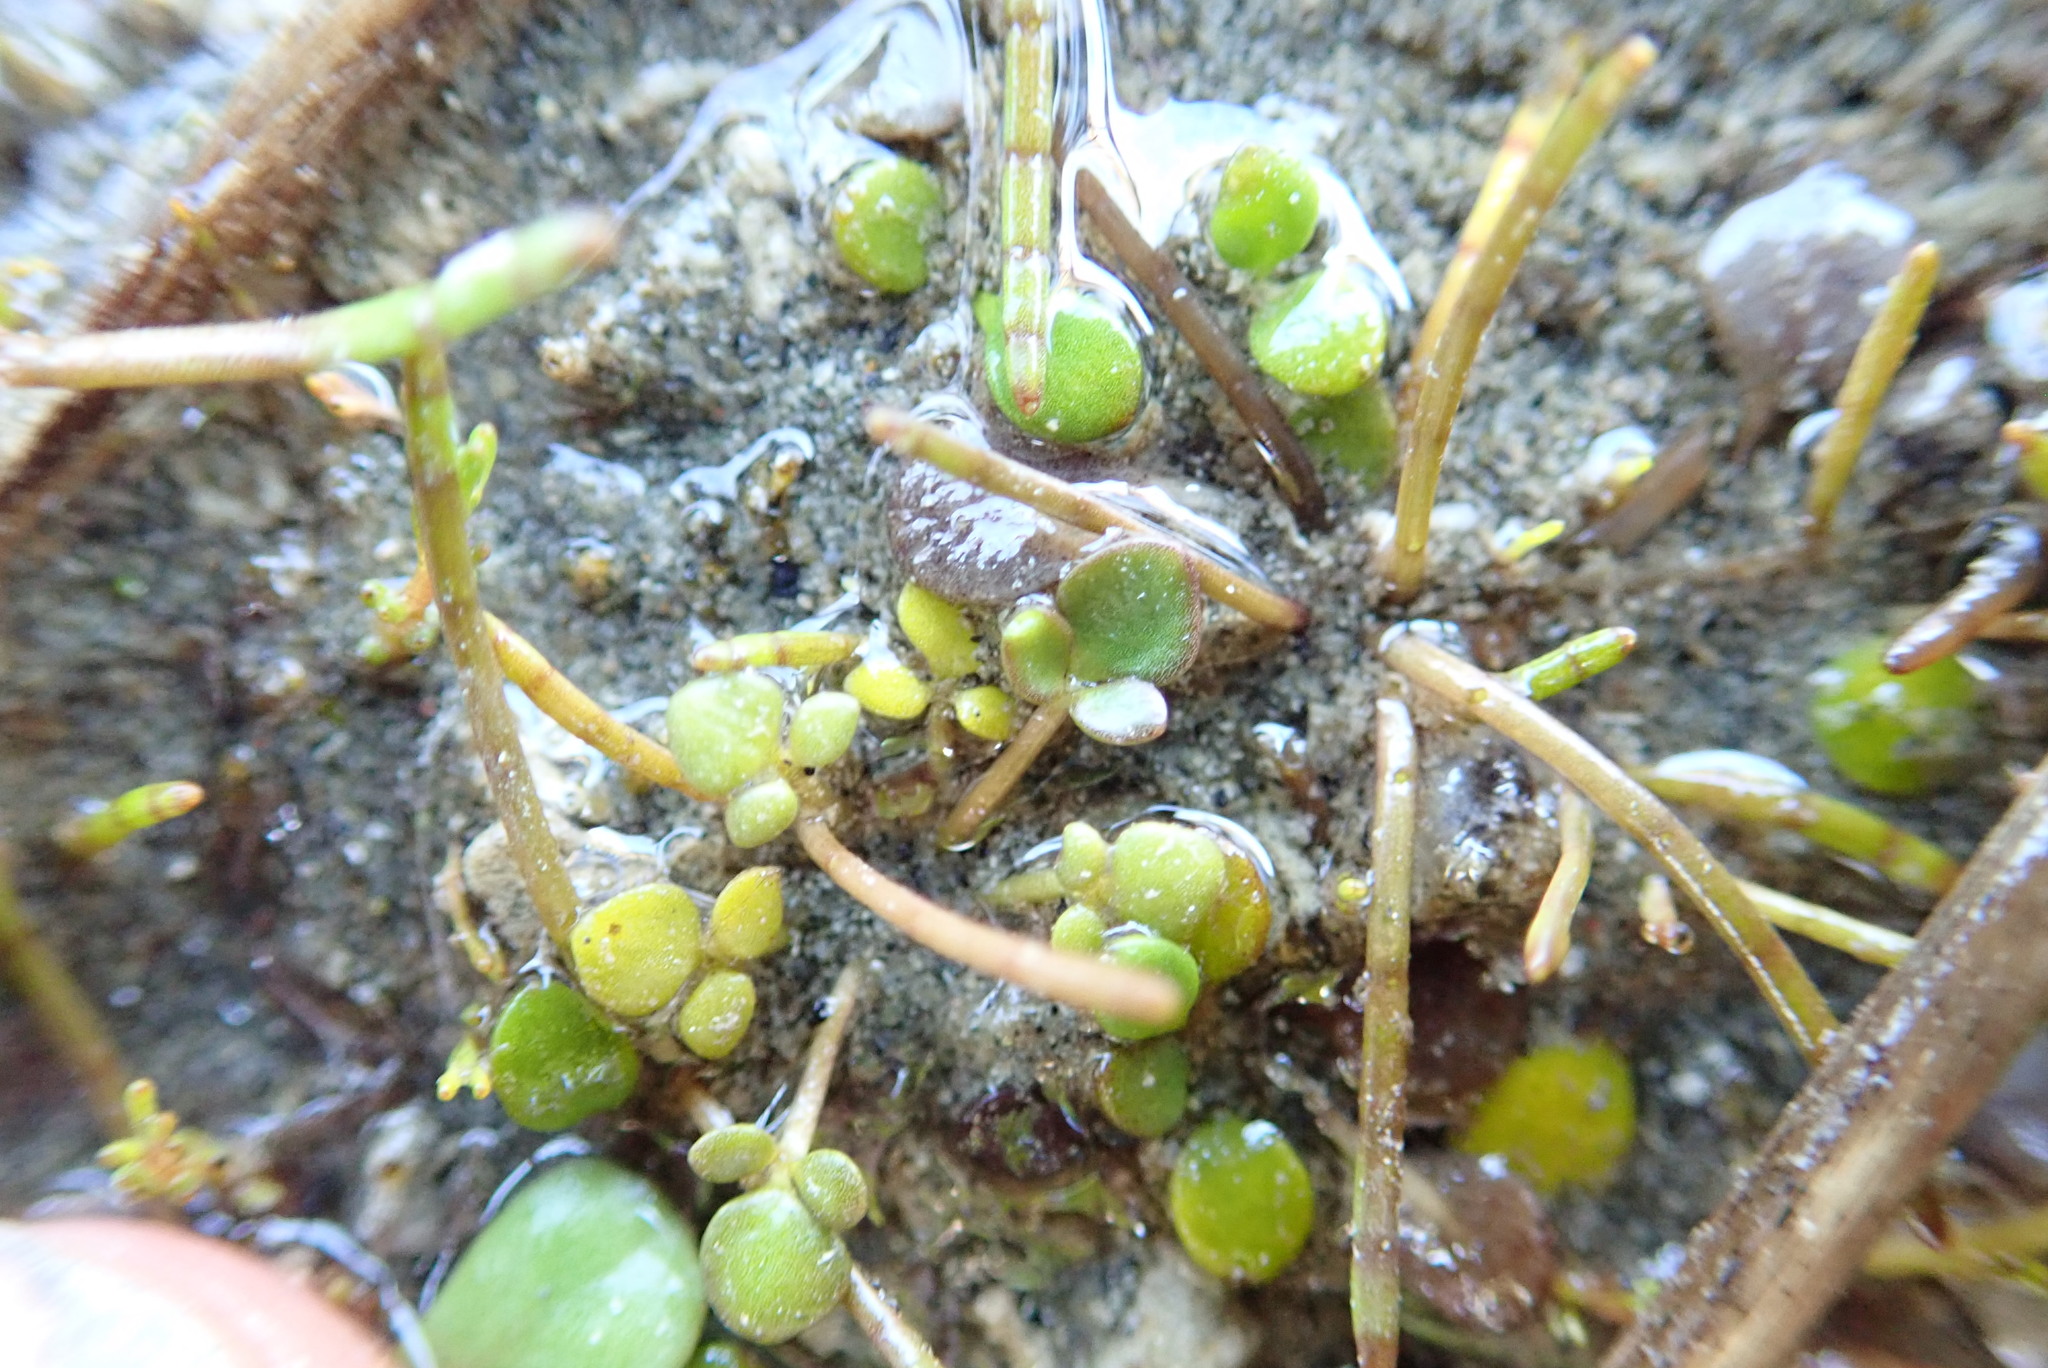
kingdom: Plantae
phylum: Tracheophyta
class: Magnoliopsida
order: Ranunculales
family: Ranunculaceae
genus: Ranunculus
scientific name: Ranunculus acaulis
